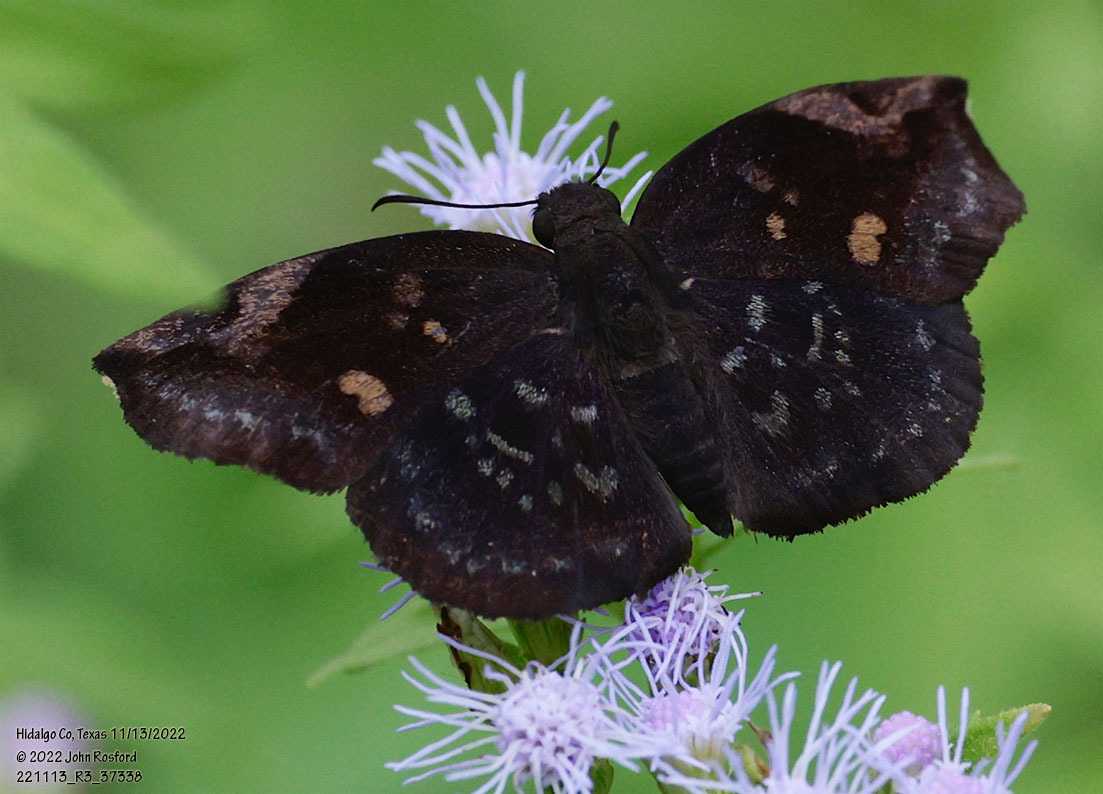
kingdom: Animalia
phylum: Arthropoda
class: Insecta
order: Lepidoptera
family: Hesperiidae
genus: Achlyodes
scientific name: Achlyodes thraso
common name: Sickle-winged skipper
